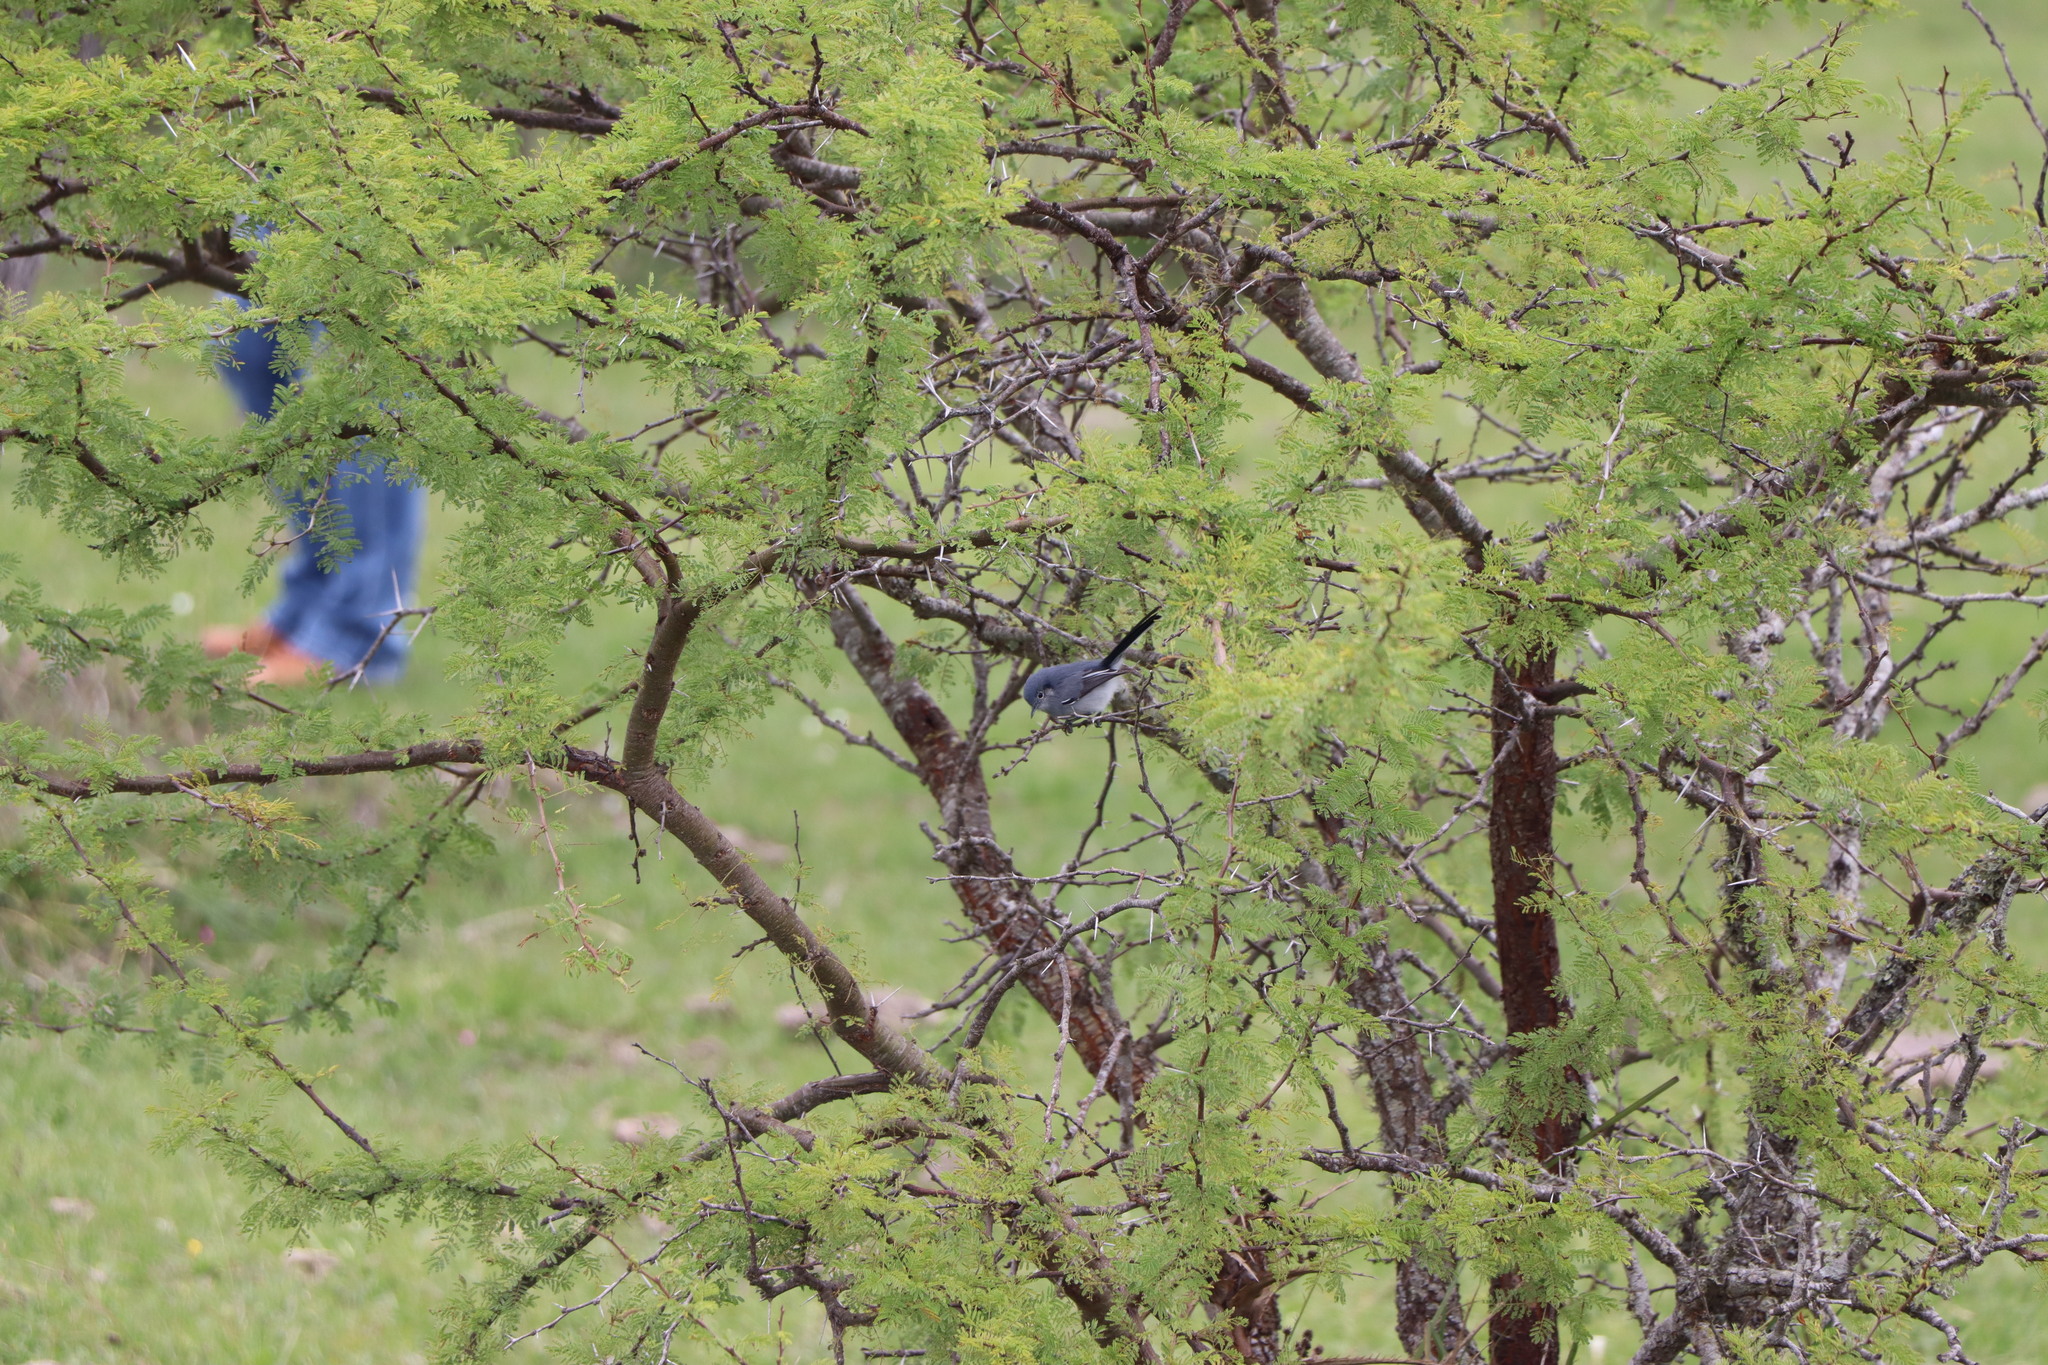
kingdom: Animalia
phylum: Chordata
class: Aves
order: Passeriformes
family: Polioptilidae
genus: Polioptila
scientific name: Polioptila dumicola
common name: Masked gnatcatcher
